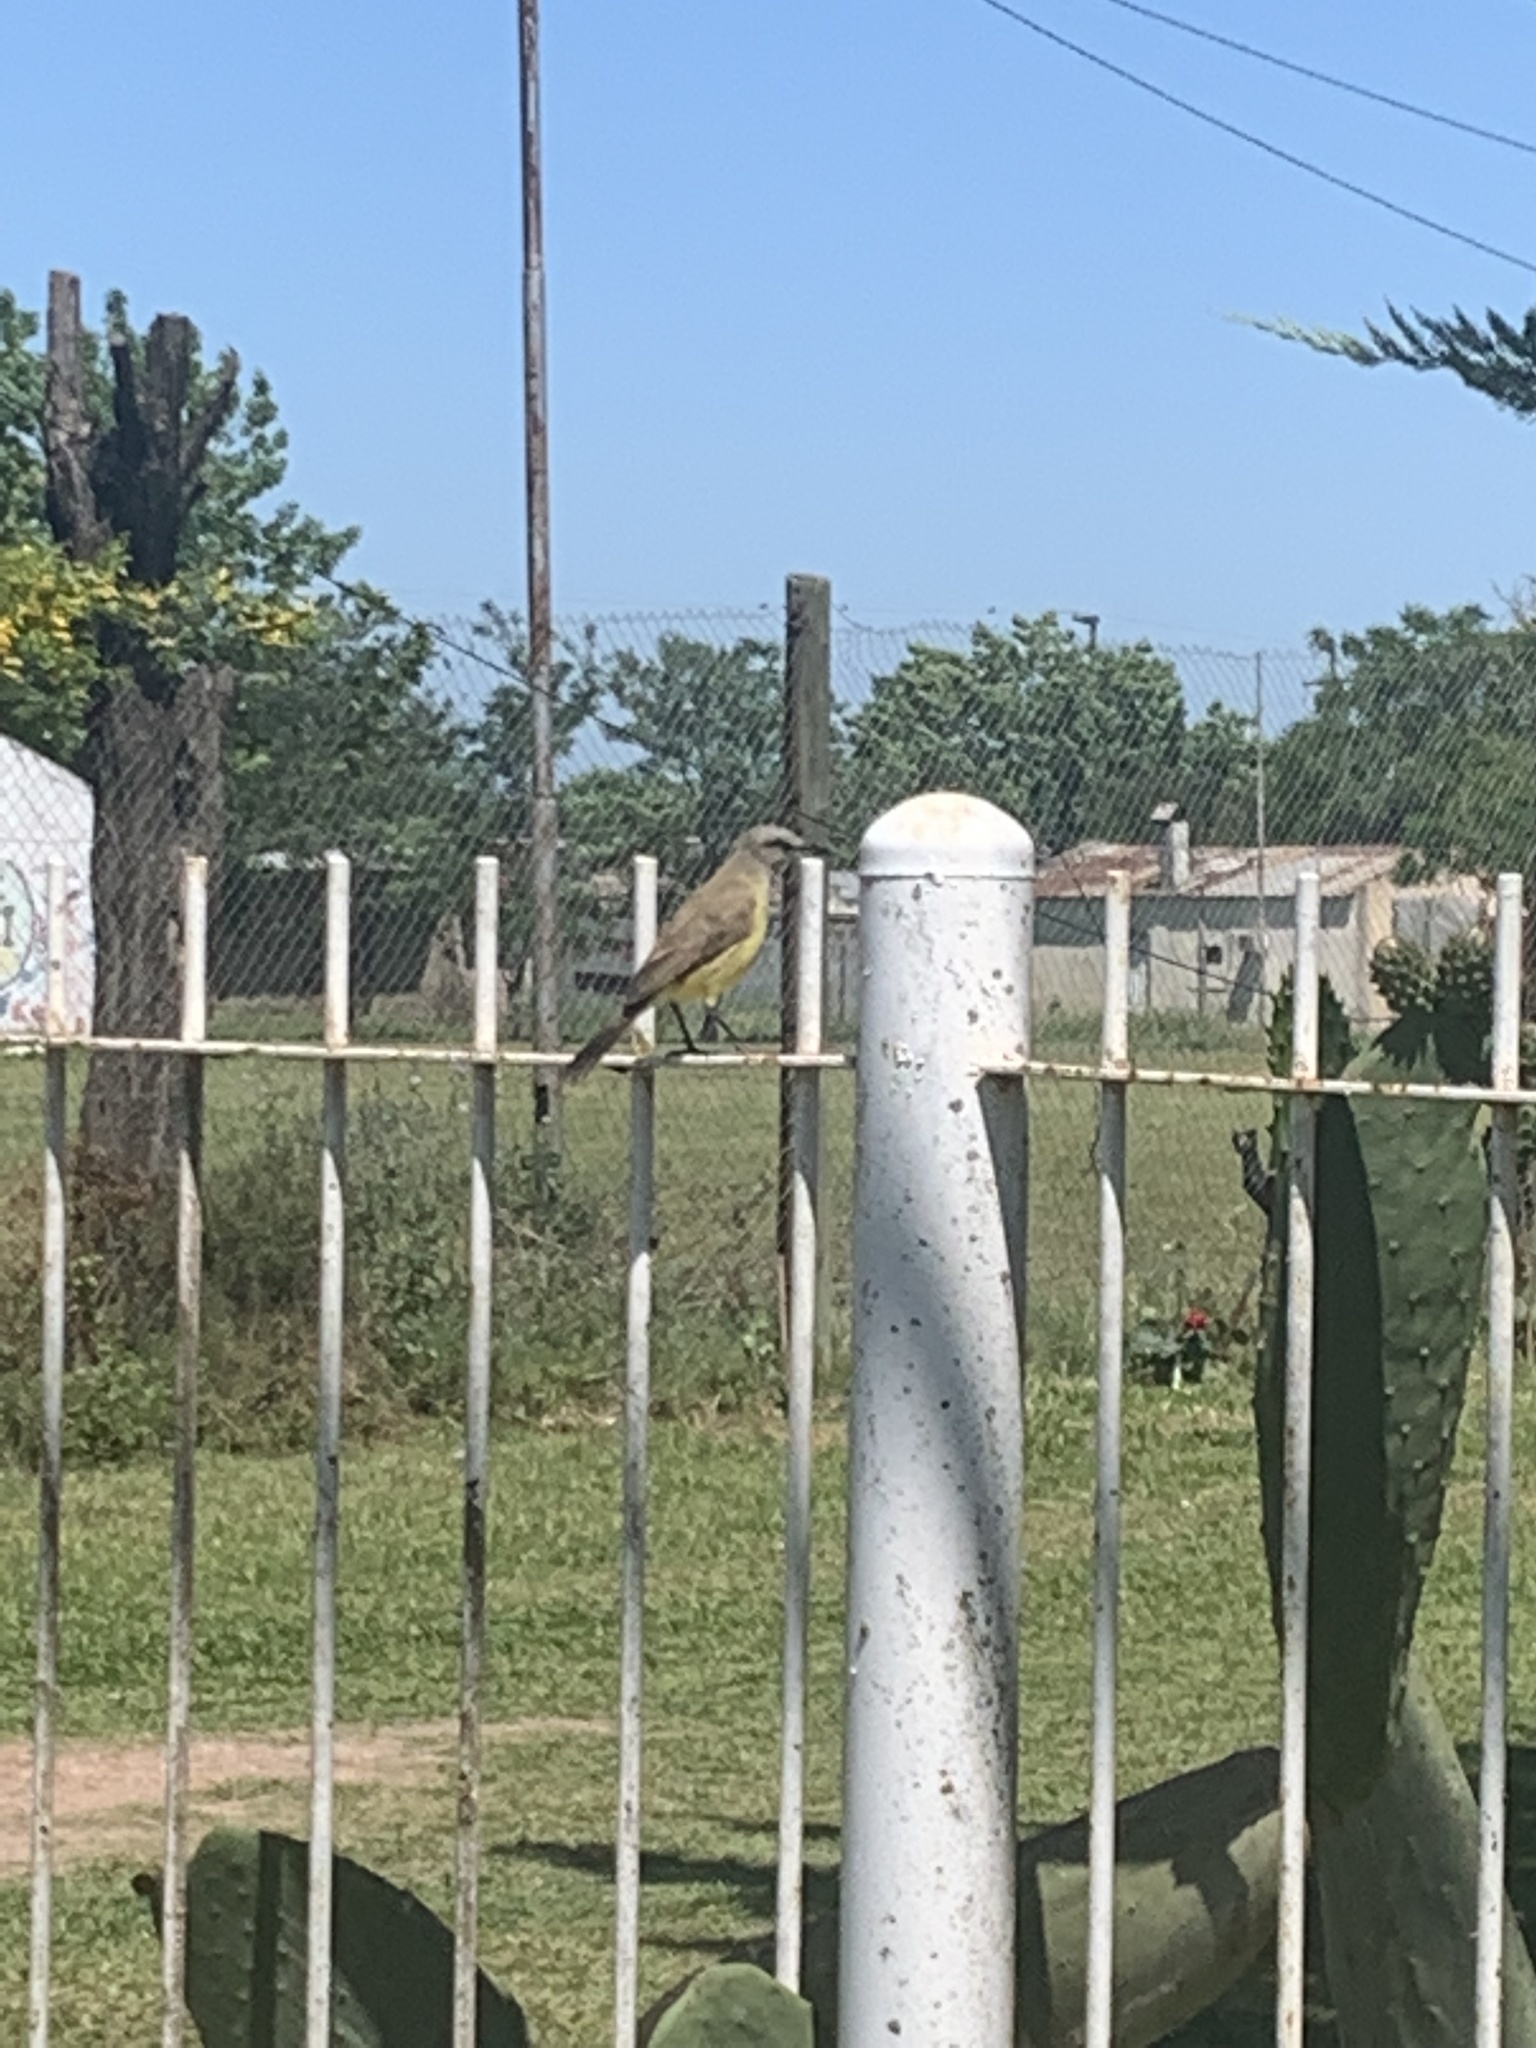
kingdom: Animalia
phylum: Chordata
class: Aves
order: Passeriformes
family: Tyrannidae
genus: Machetornis
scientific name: Machetornis rixosa
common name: Cattle tyrant
